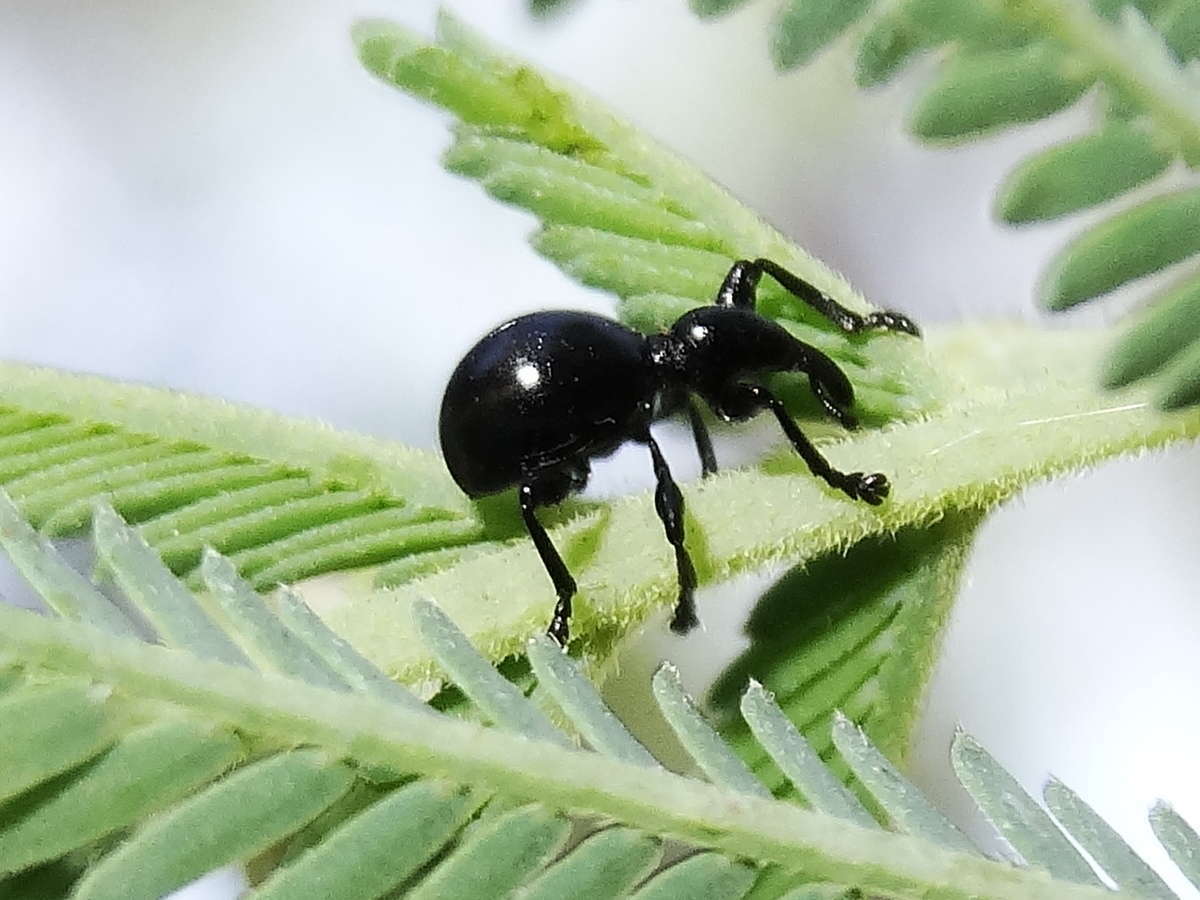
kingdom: Animalia
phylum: Arthropoda
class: Insecta
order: Coleoptera
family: Brentidae
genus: Rhynolaccus
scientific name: Rhynolaccus formicarius
